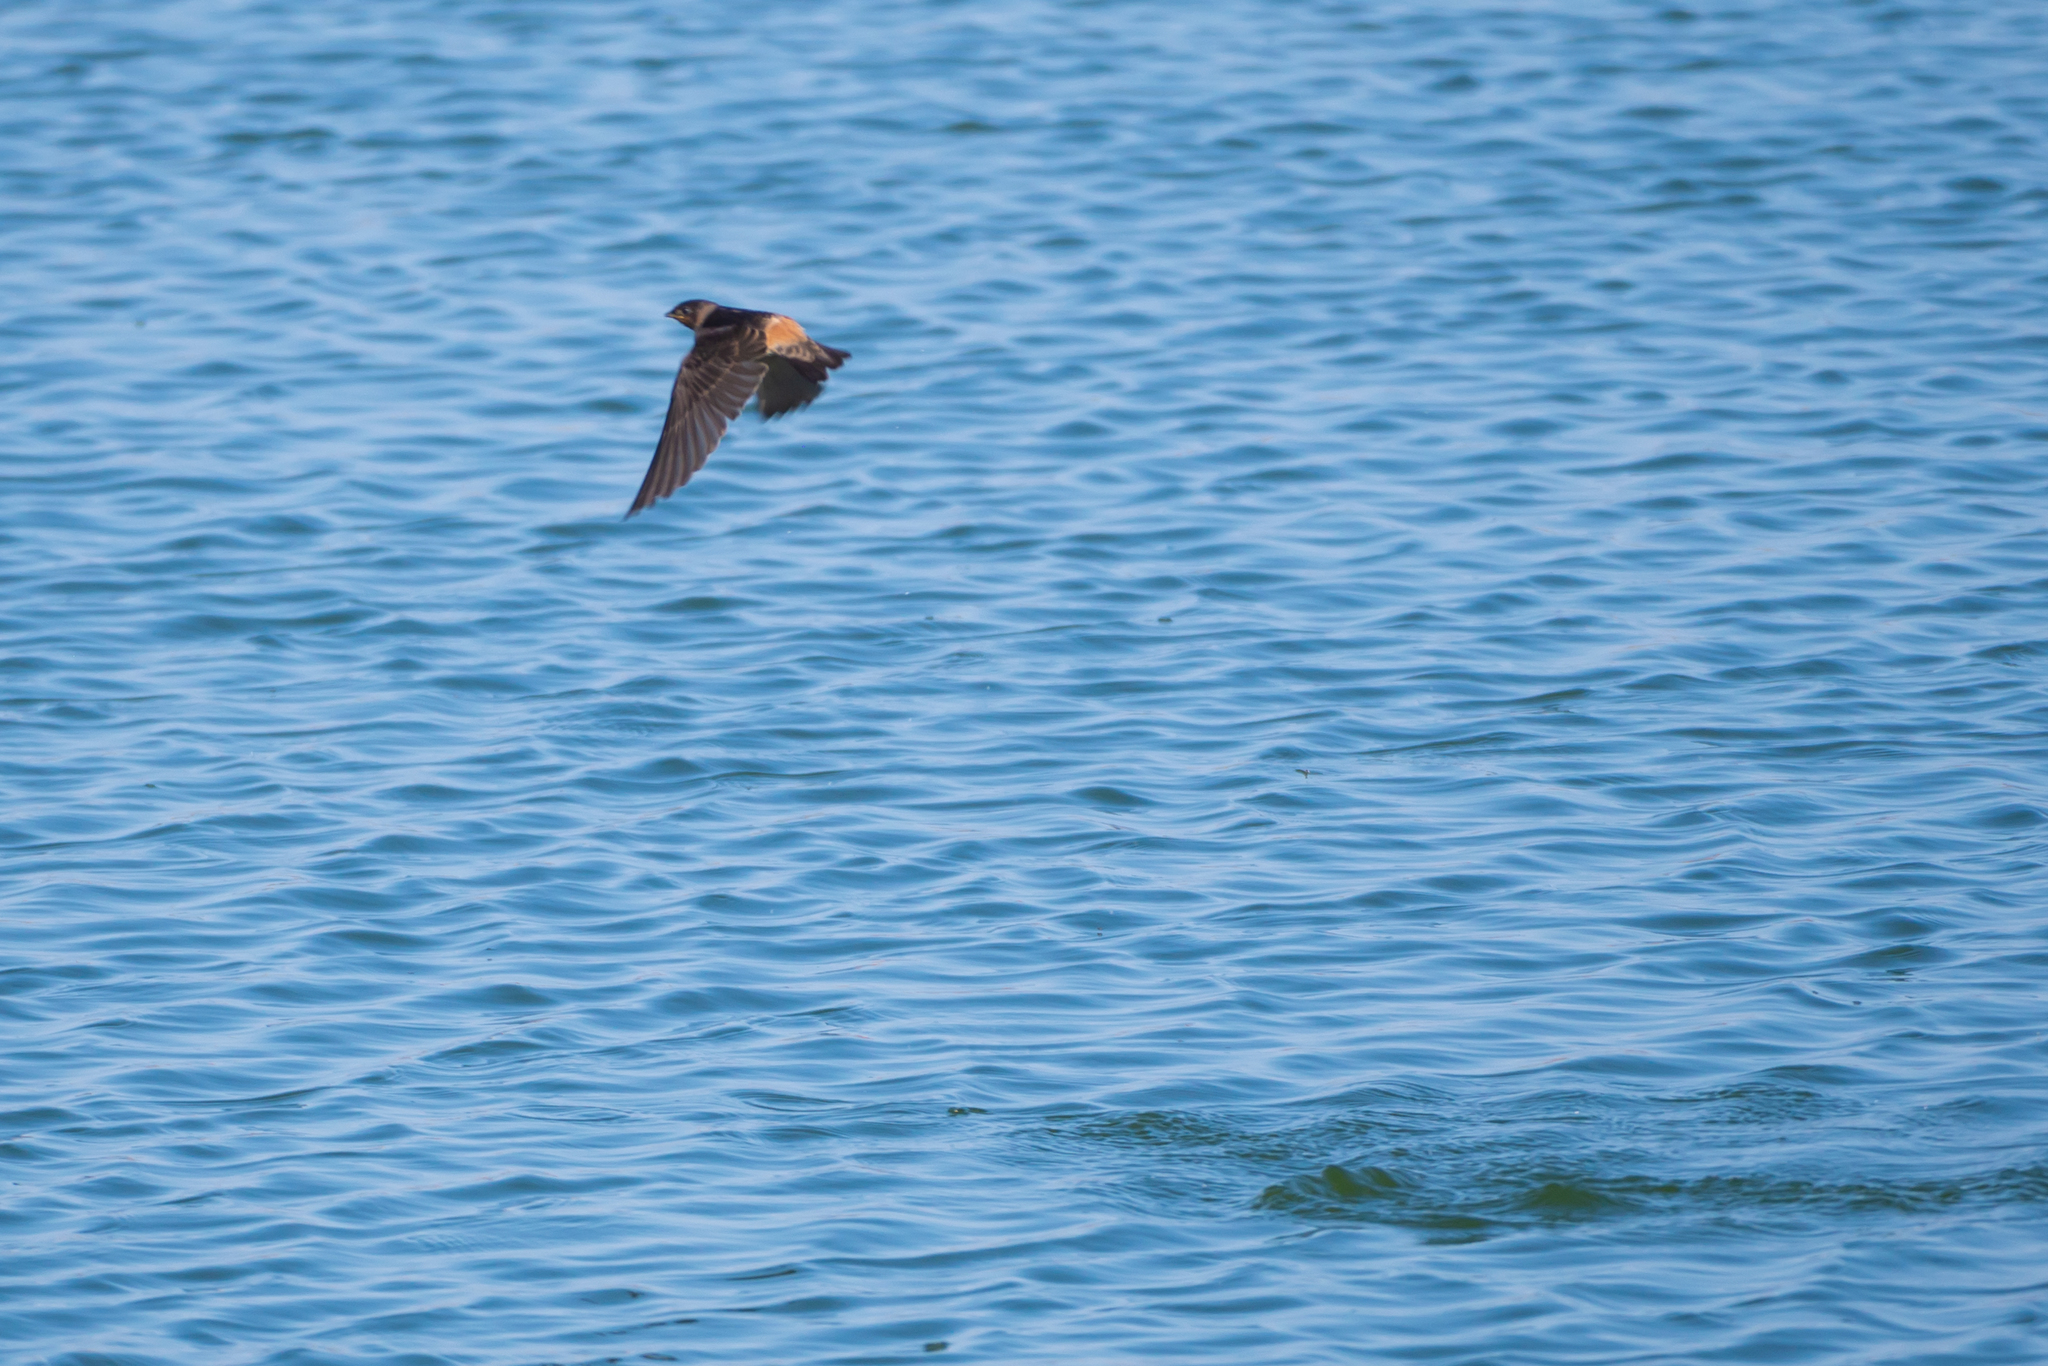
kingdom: Animalia
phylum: Chordata
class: Aves
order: Passeriformes
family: Hirundinidae
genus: Petrochelidon
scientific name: Petrochelidon pyrrhonota
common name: American cliff swallow
